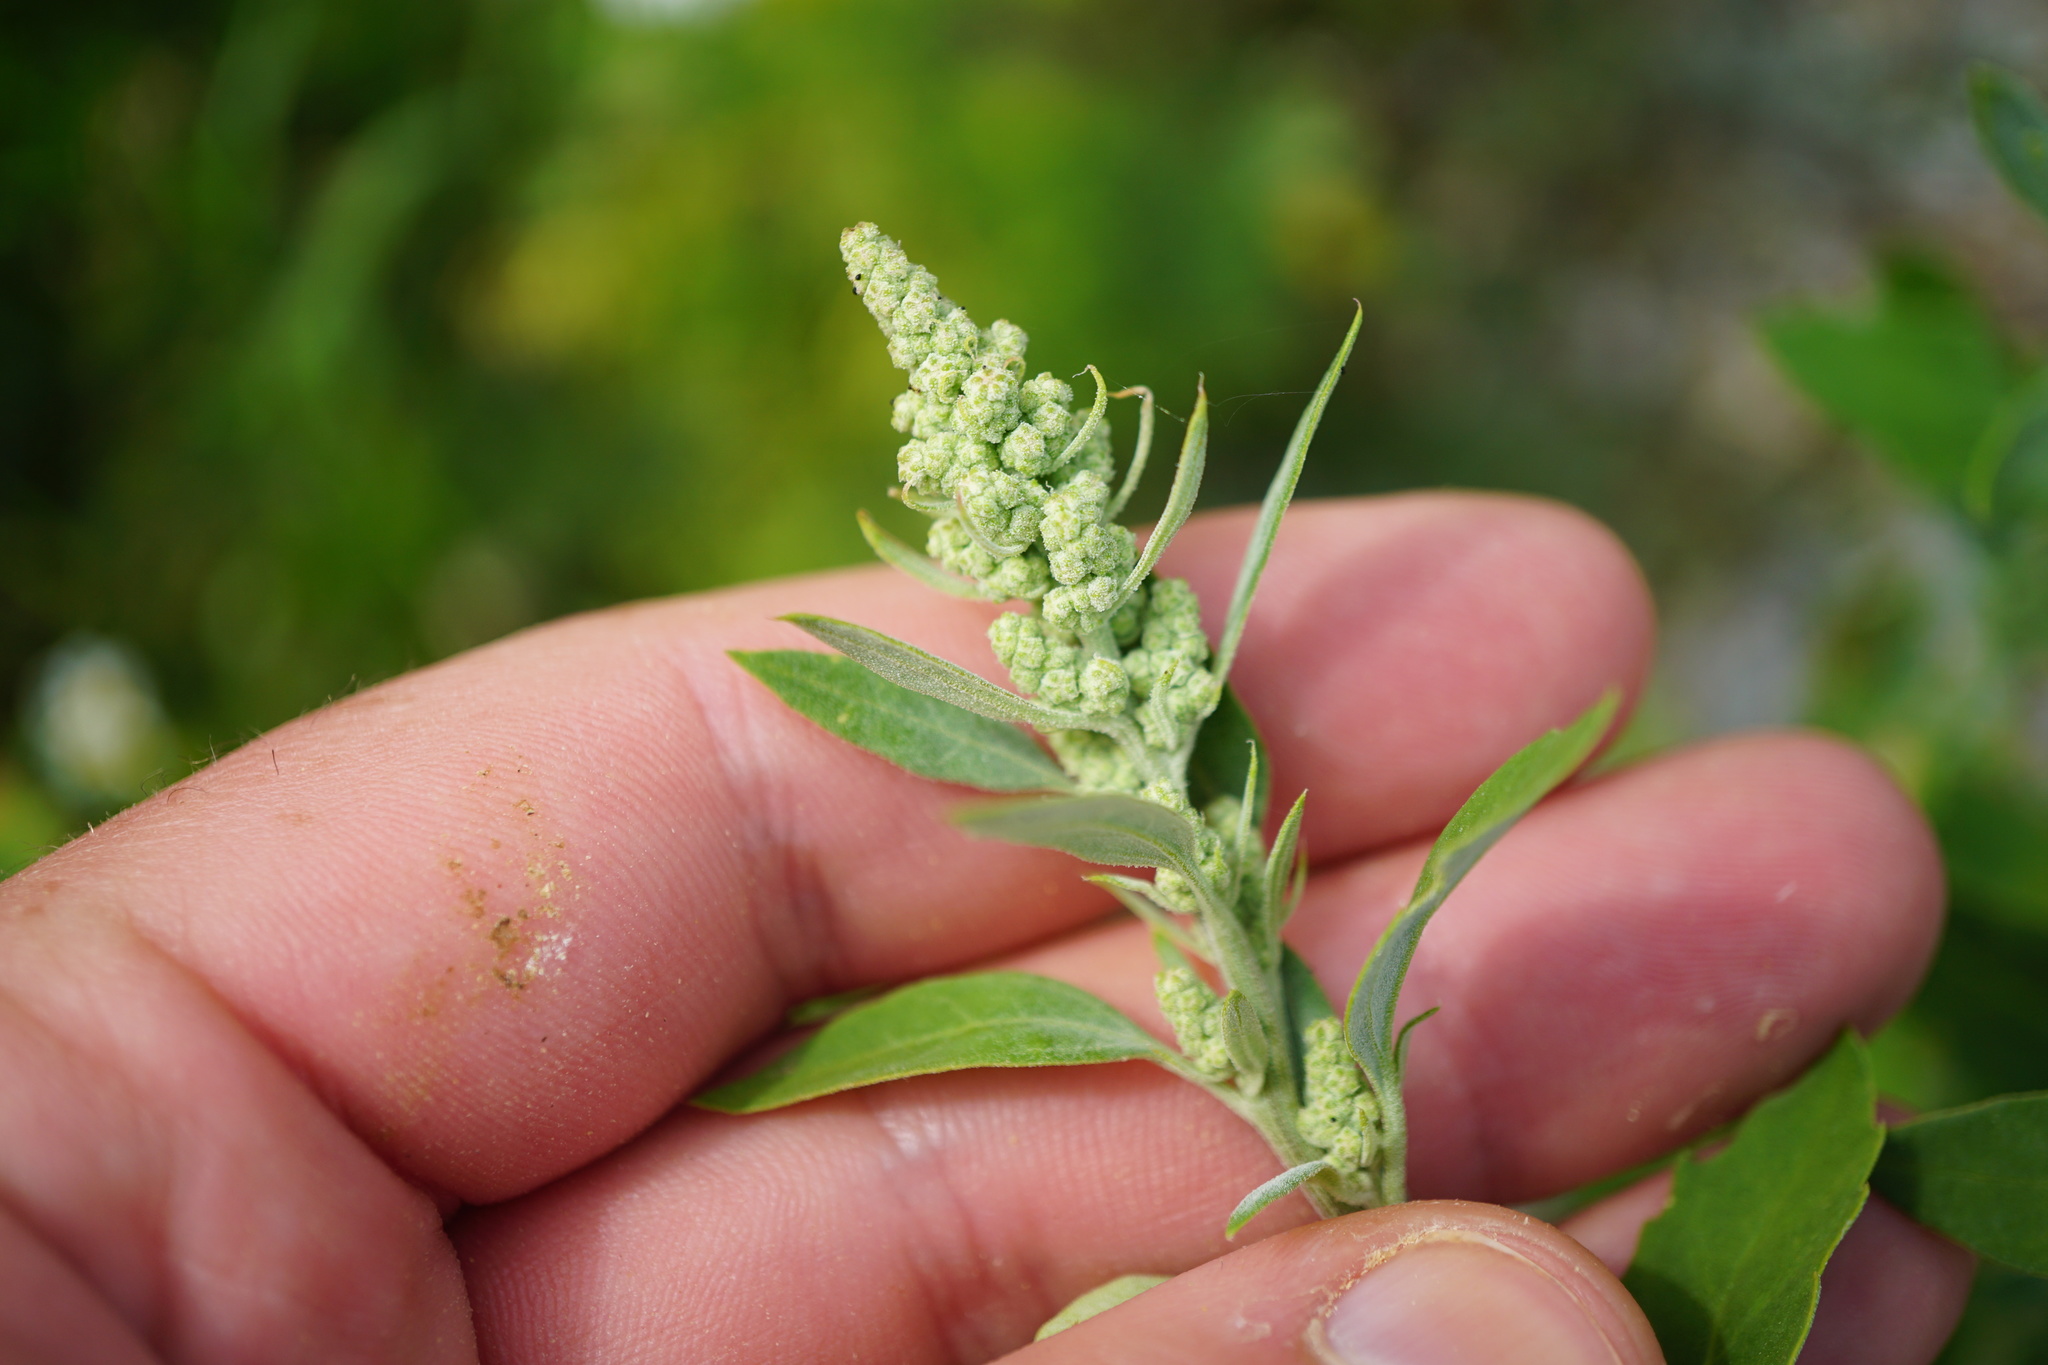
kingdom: Plantae
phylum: Tracheophyta
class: Magnoliopsida
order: Caryophyllales
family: Amaranthaceae
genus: Chenopodium
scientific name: Chenopodium album
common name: Fat-hen
